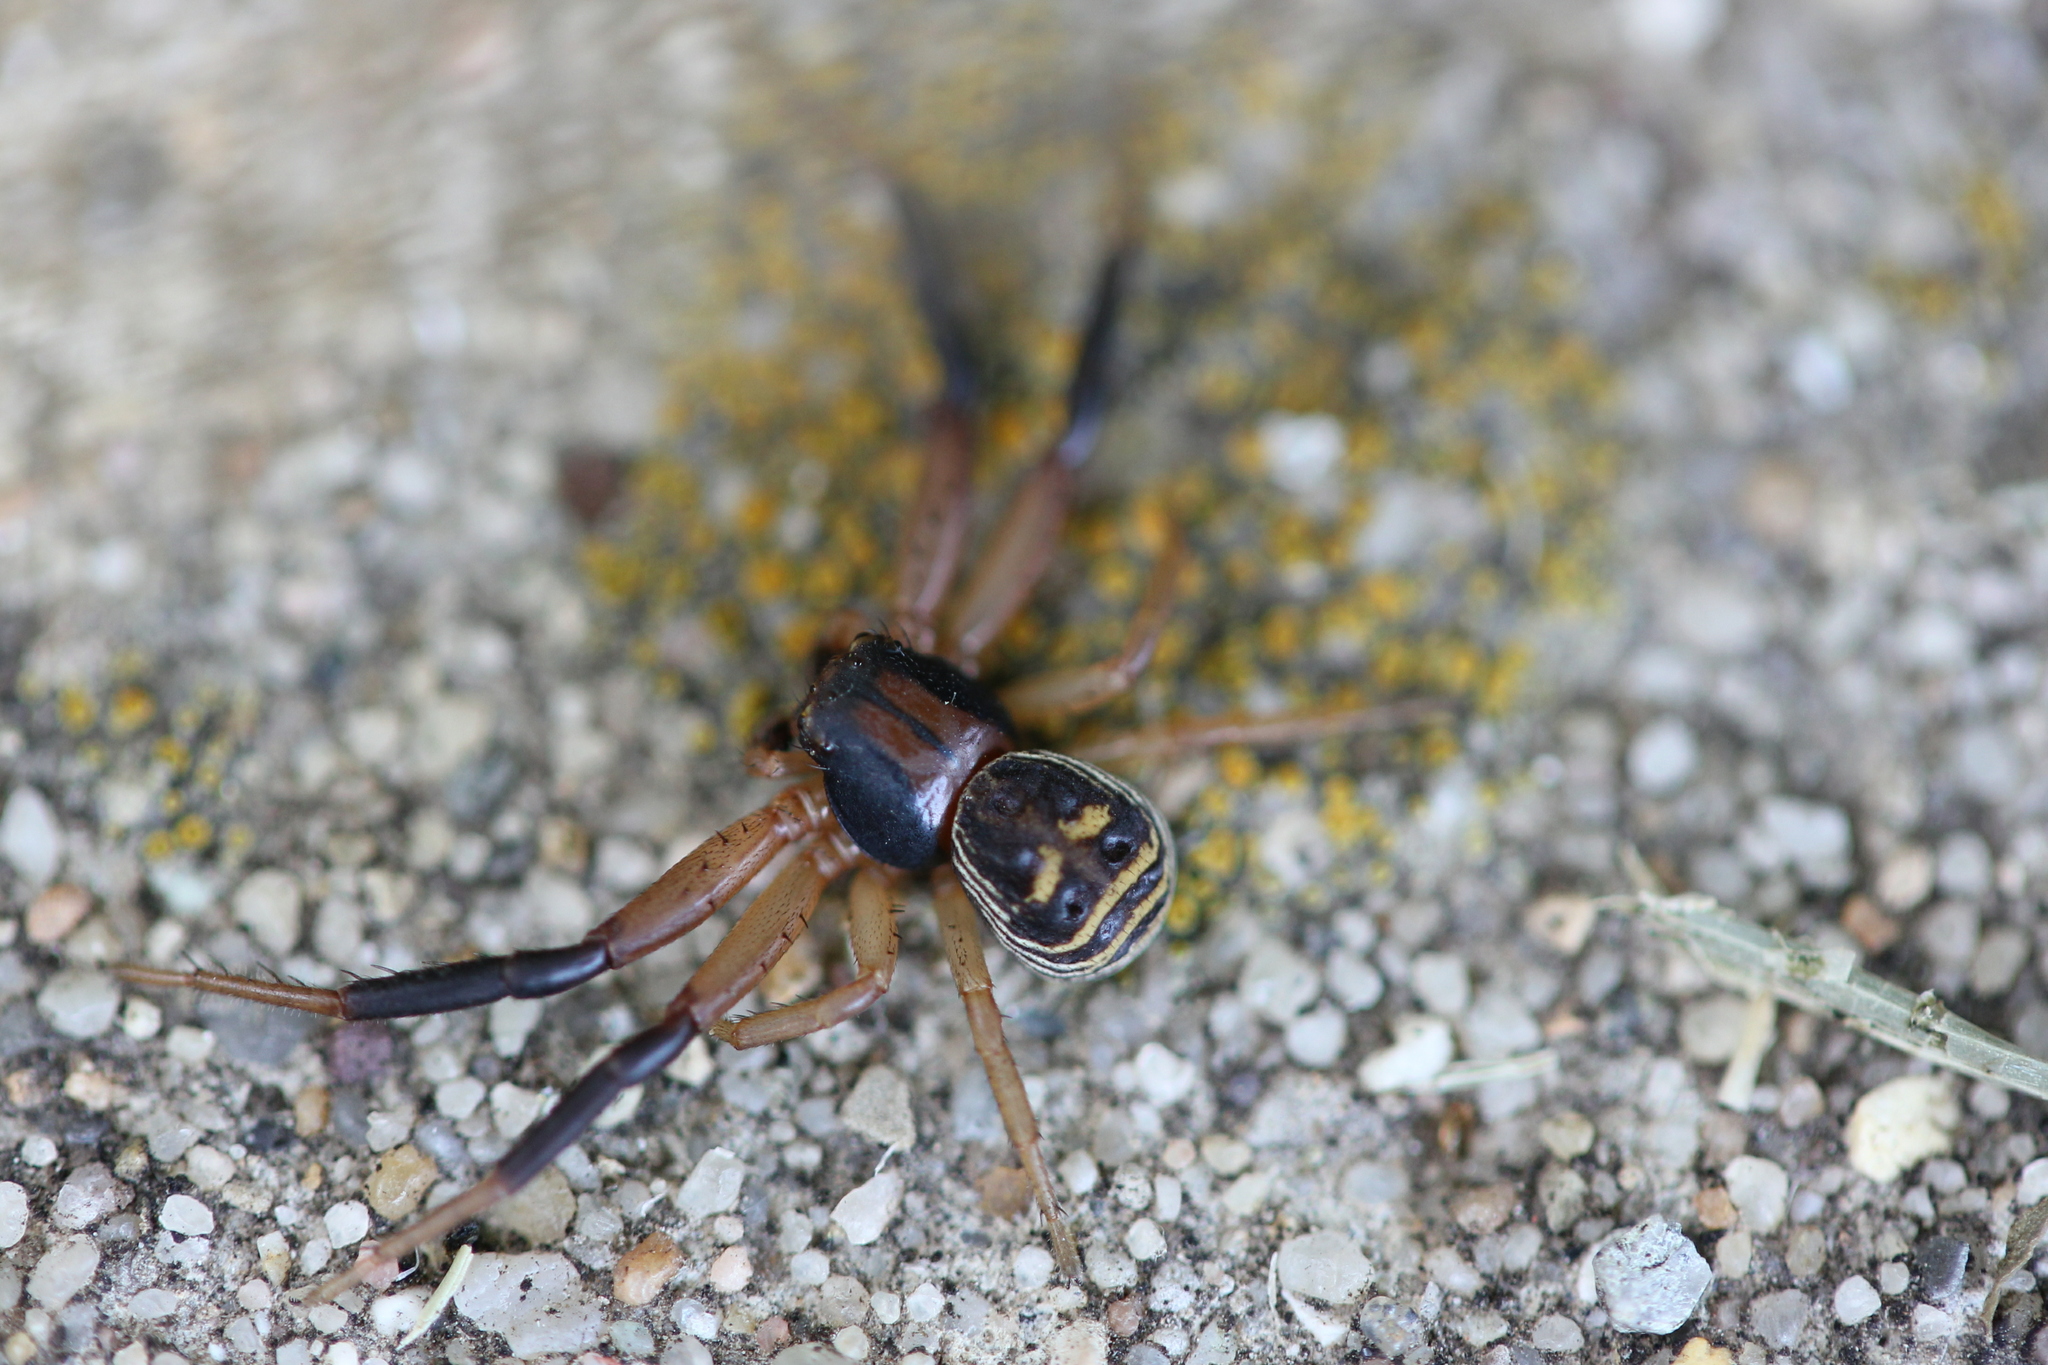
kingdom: Animalia
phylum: Arthropoda
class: Arachnida
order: Araneae
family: Thomisidae
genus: Xysticus
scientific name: Xysticus texanus
